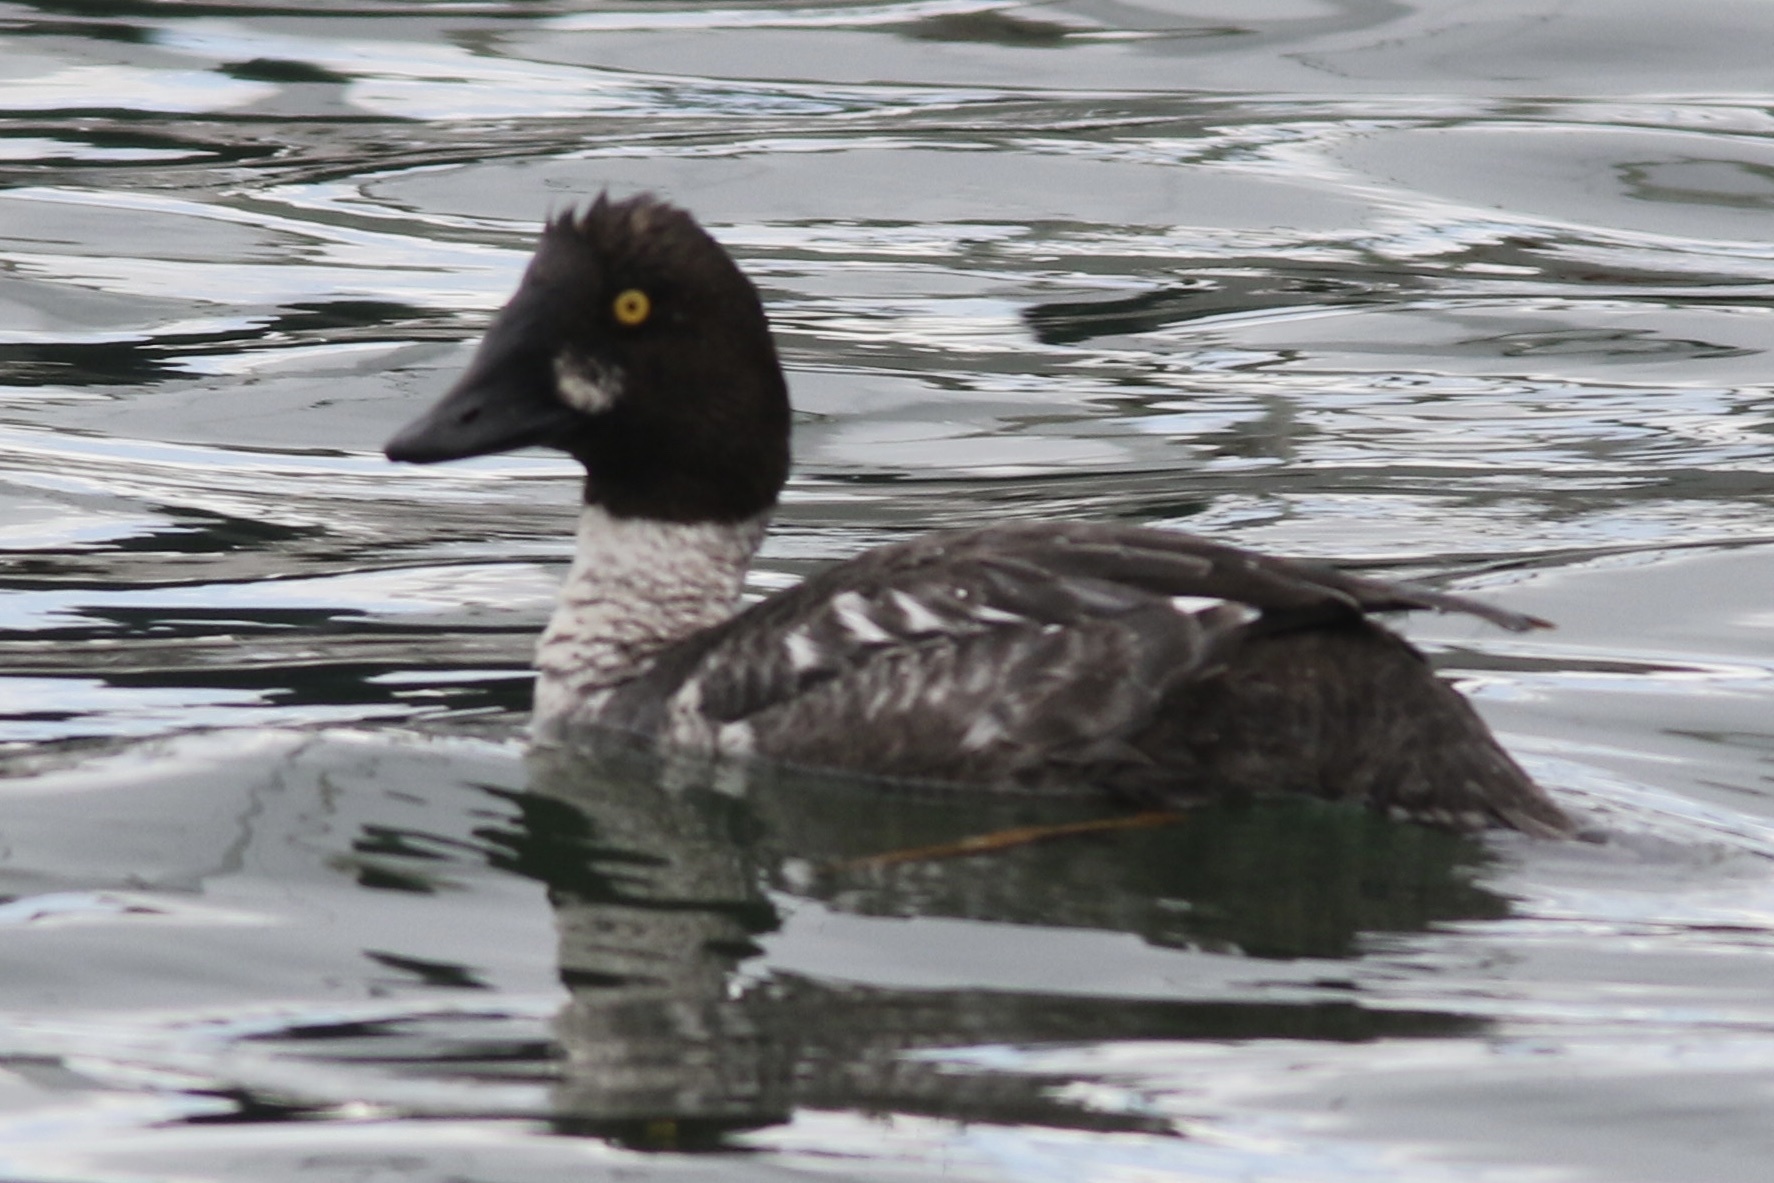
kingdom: Animalia
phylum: Chordata
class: Aves
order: Anseriformes
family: Anatidae
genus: Bucephala
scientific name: Bucephala clangula
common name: Common goldeneye
